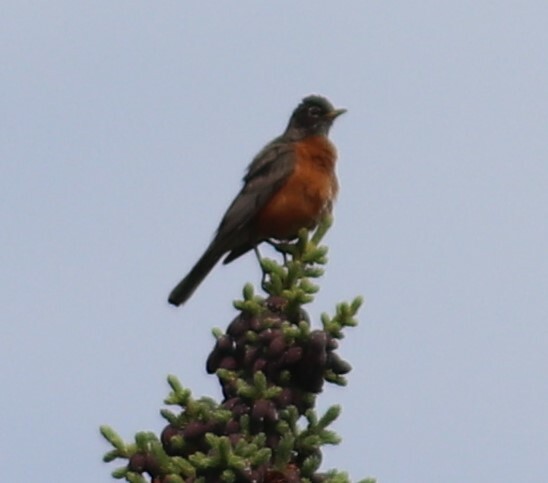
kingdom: Animalia
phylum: Chordata
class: Aves
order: Passeriformes
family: Turdidae
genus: Turdus
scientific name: Turdus migratorius
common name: American robin
